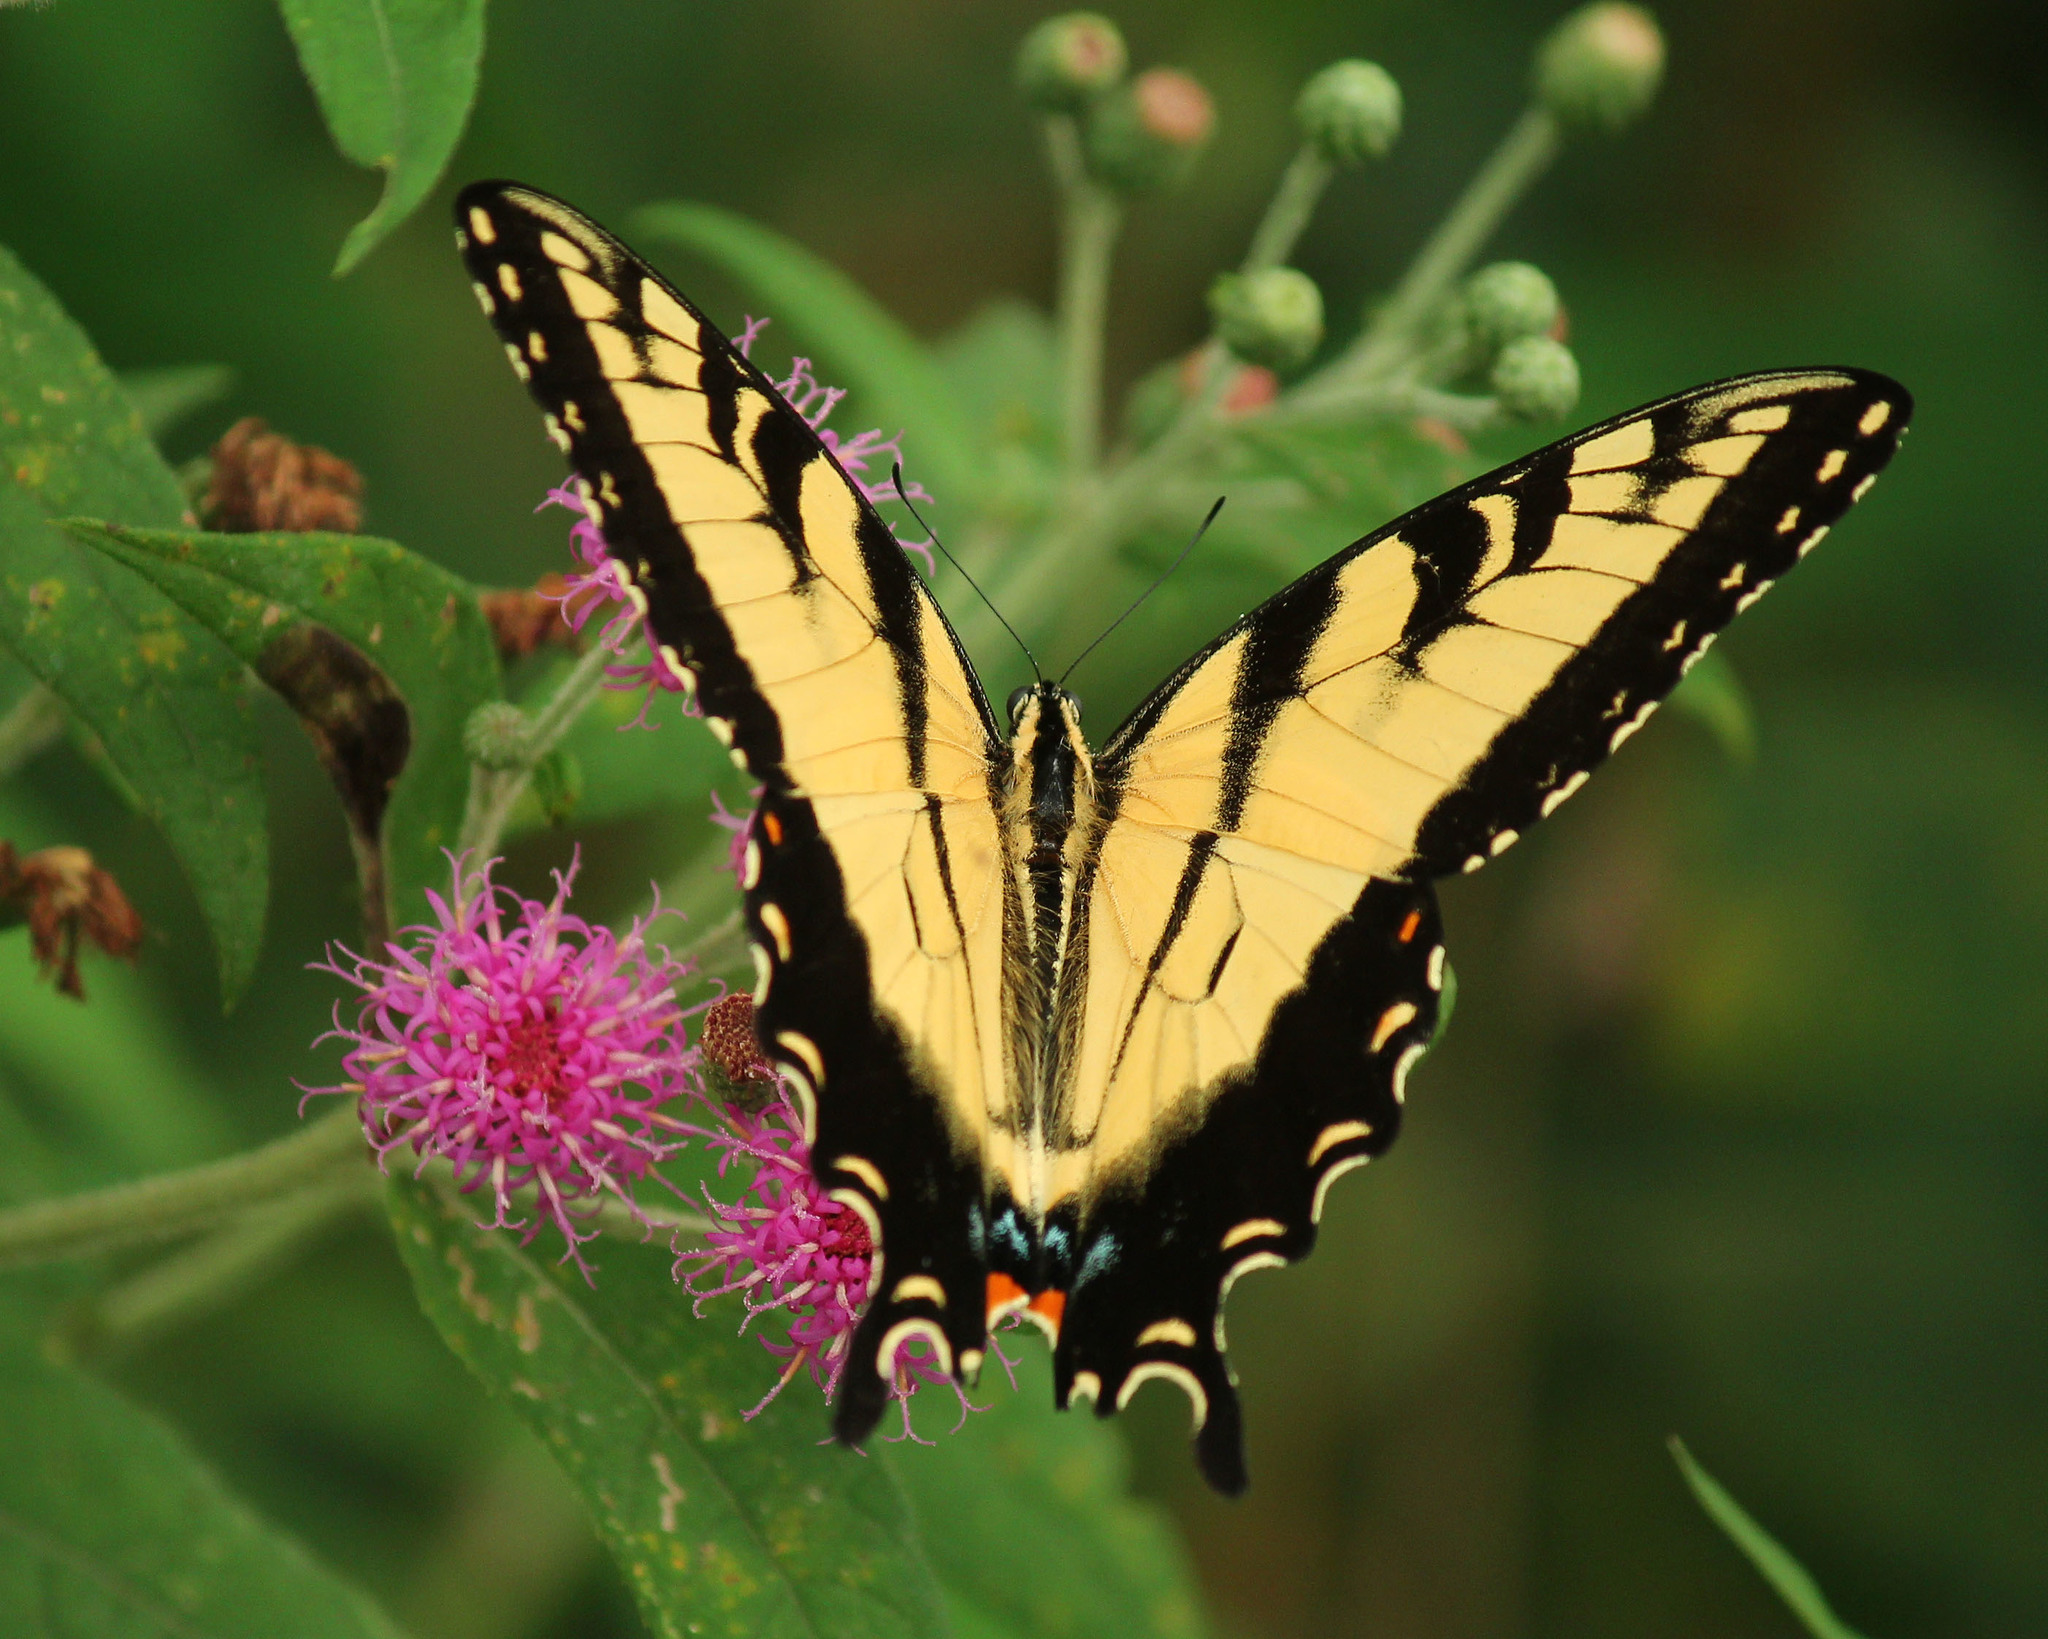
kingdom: Animalia
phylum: Arthropoda
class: Insecta
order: Lepidoptera
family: Papilionidae
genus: Papilio
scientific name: Papilio glaucus
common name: Tiger swallowtail
